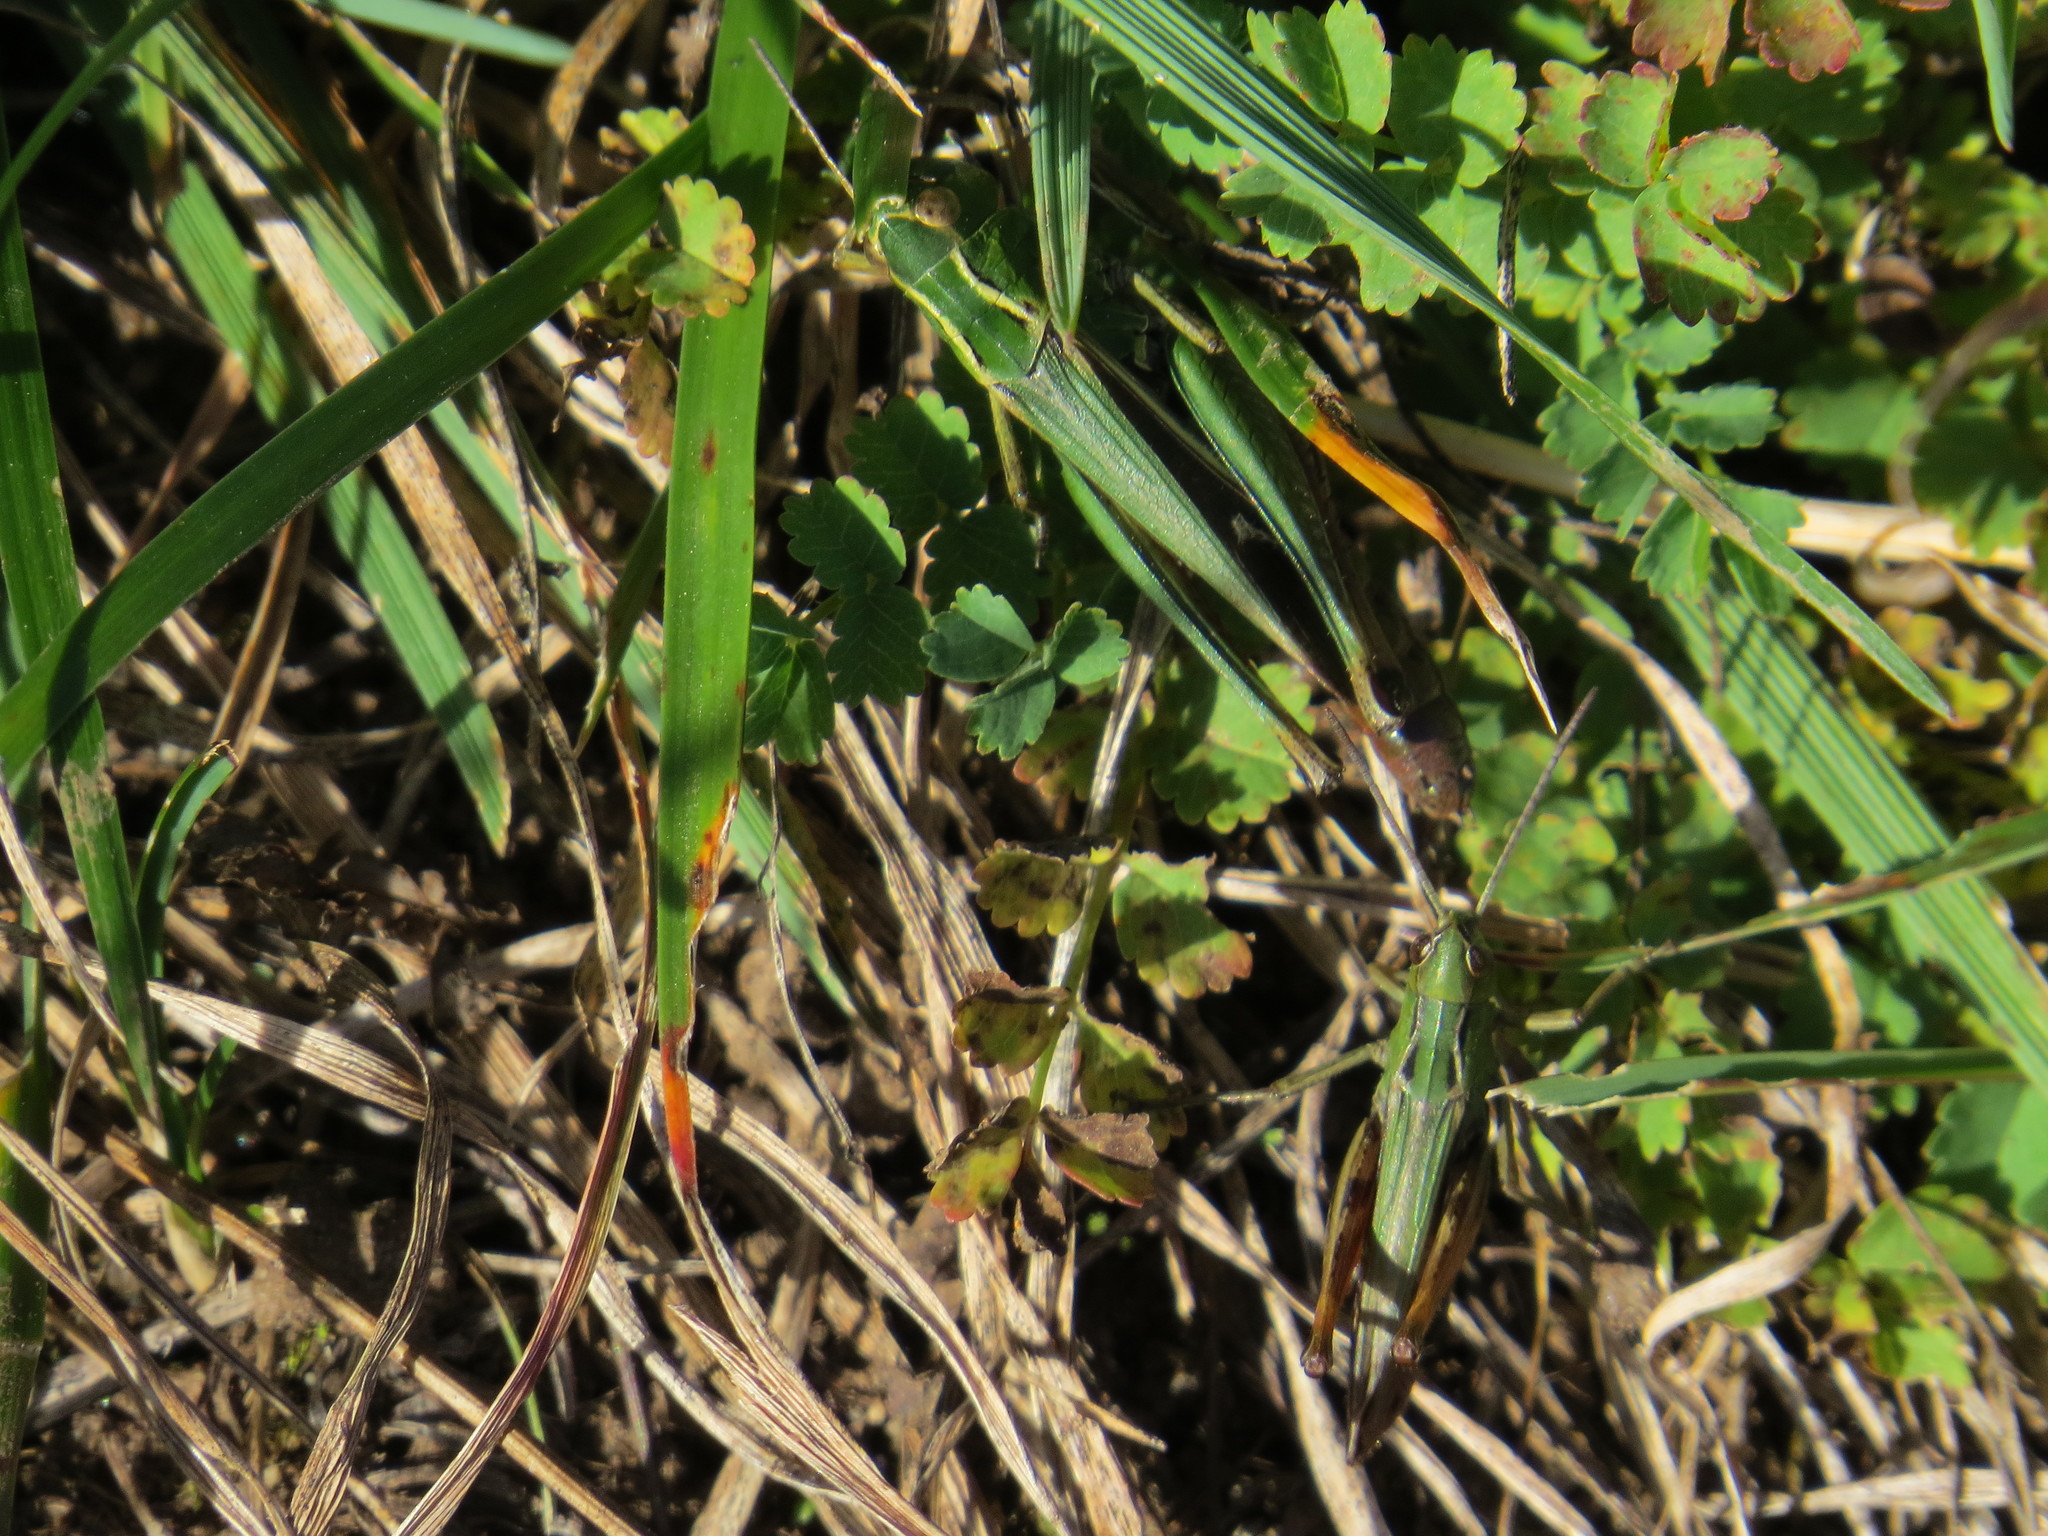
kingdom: Animalia
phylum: Arthropoda
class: Insecta
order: Orthoptera
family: Acrididae
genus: Stenobothrus
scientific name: Stenobothrus lineatus
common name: Stripe-winged grasshopper
